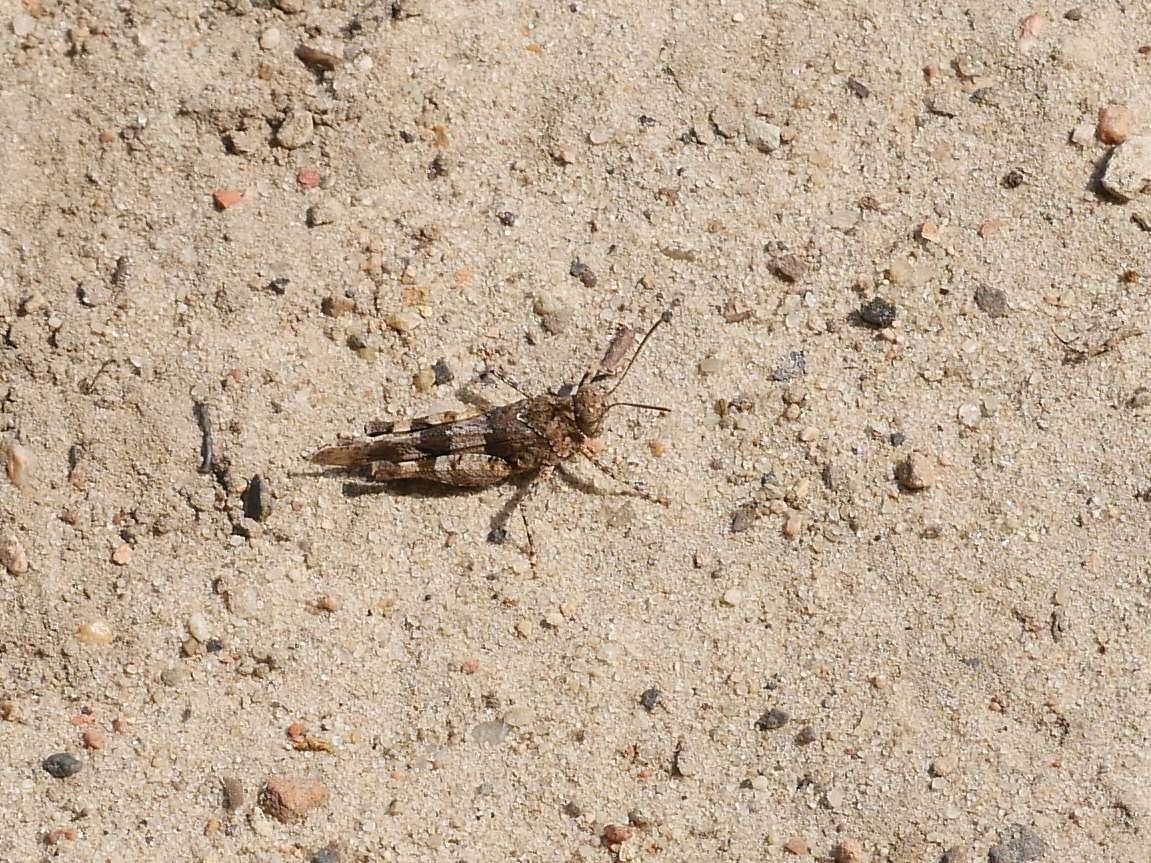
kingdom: Animalia
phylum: Arthropoda
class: Insecta
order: Orthoptera
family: Acrididae
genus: Oedipoda
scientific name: Oedipoda caerulescens
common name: Blue-winged grasshopper
